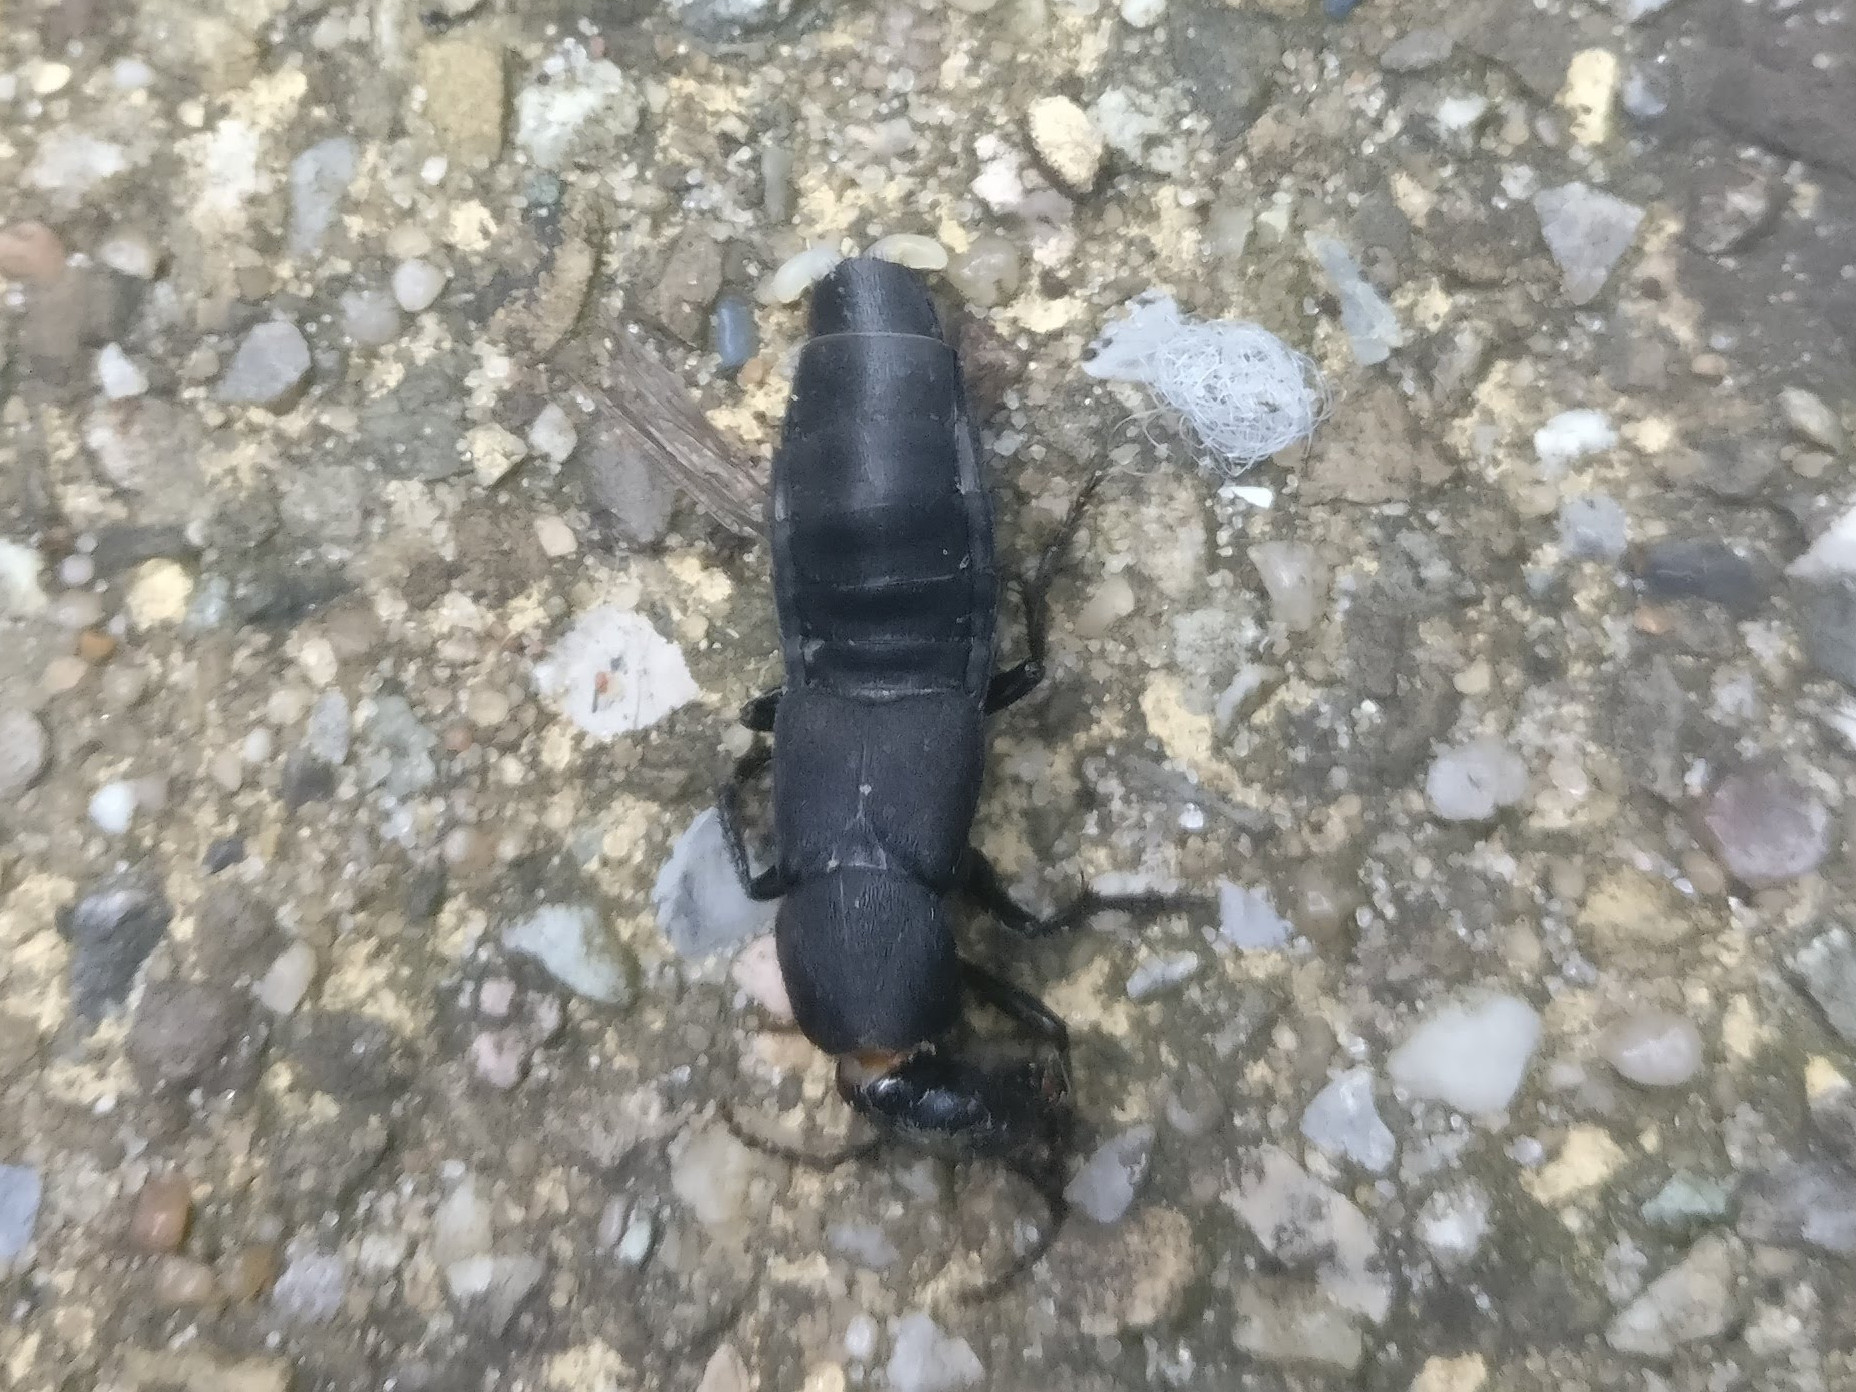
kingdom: Animalia
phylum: Arthropoda
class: Insecta
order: Coleoptera
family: Staphylinidae
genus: Ocypus
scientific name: Ocypus olens
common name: Devil's coach-horse
